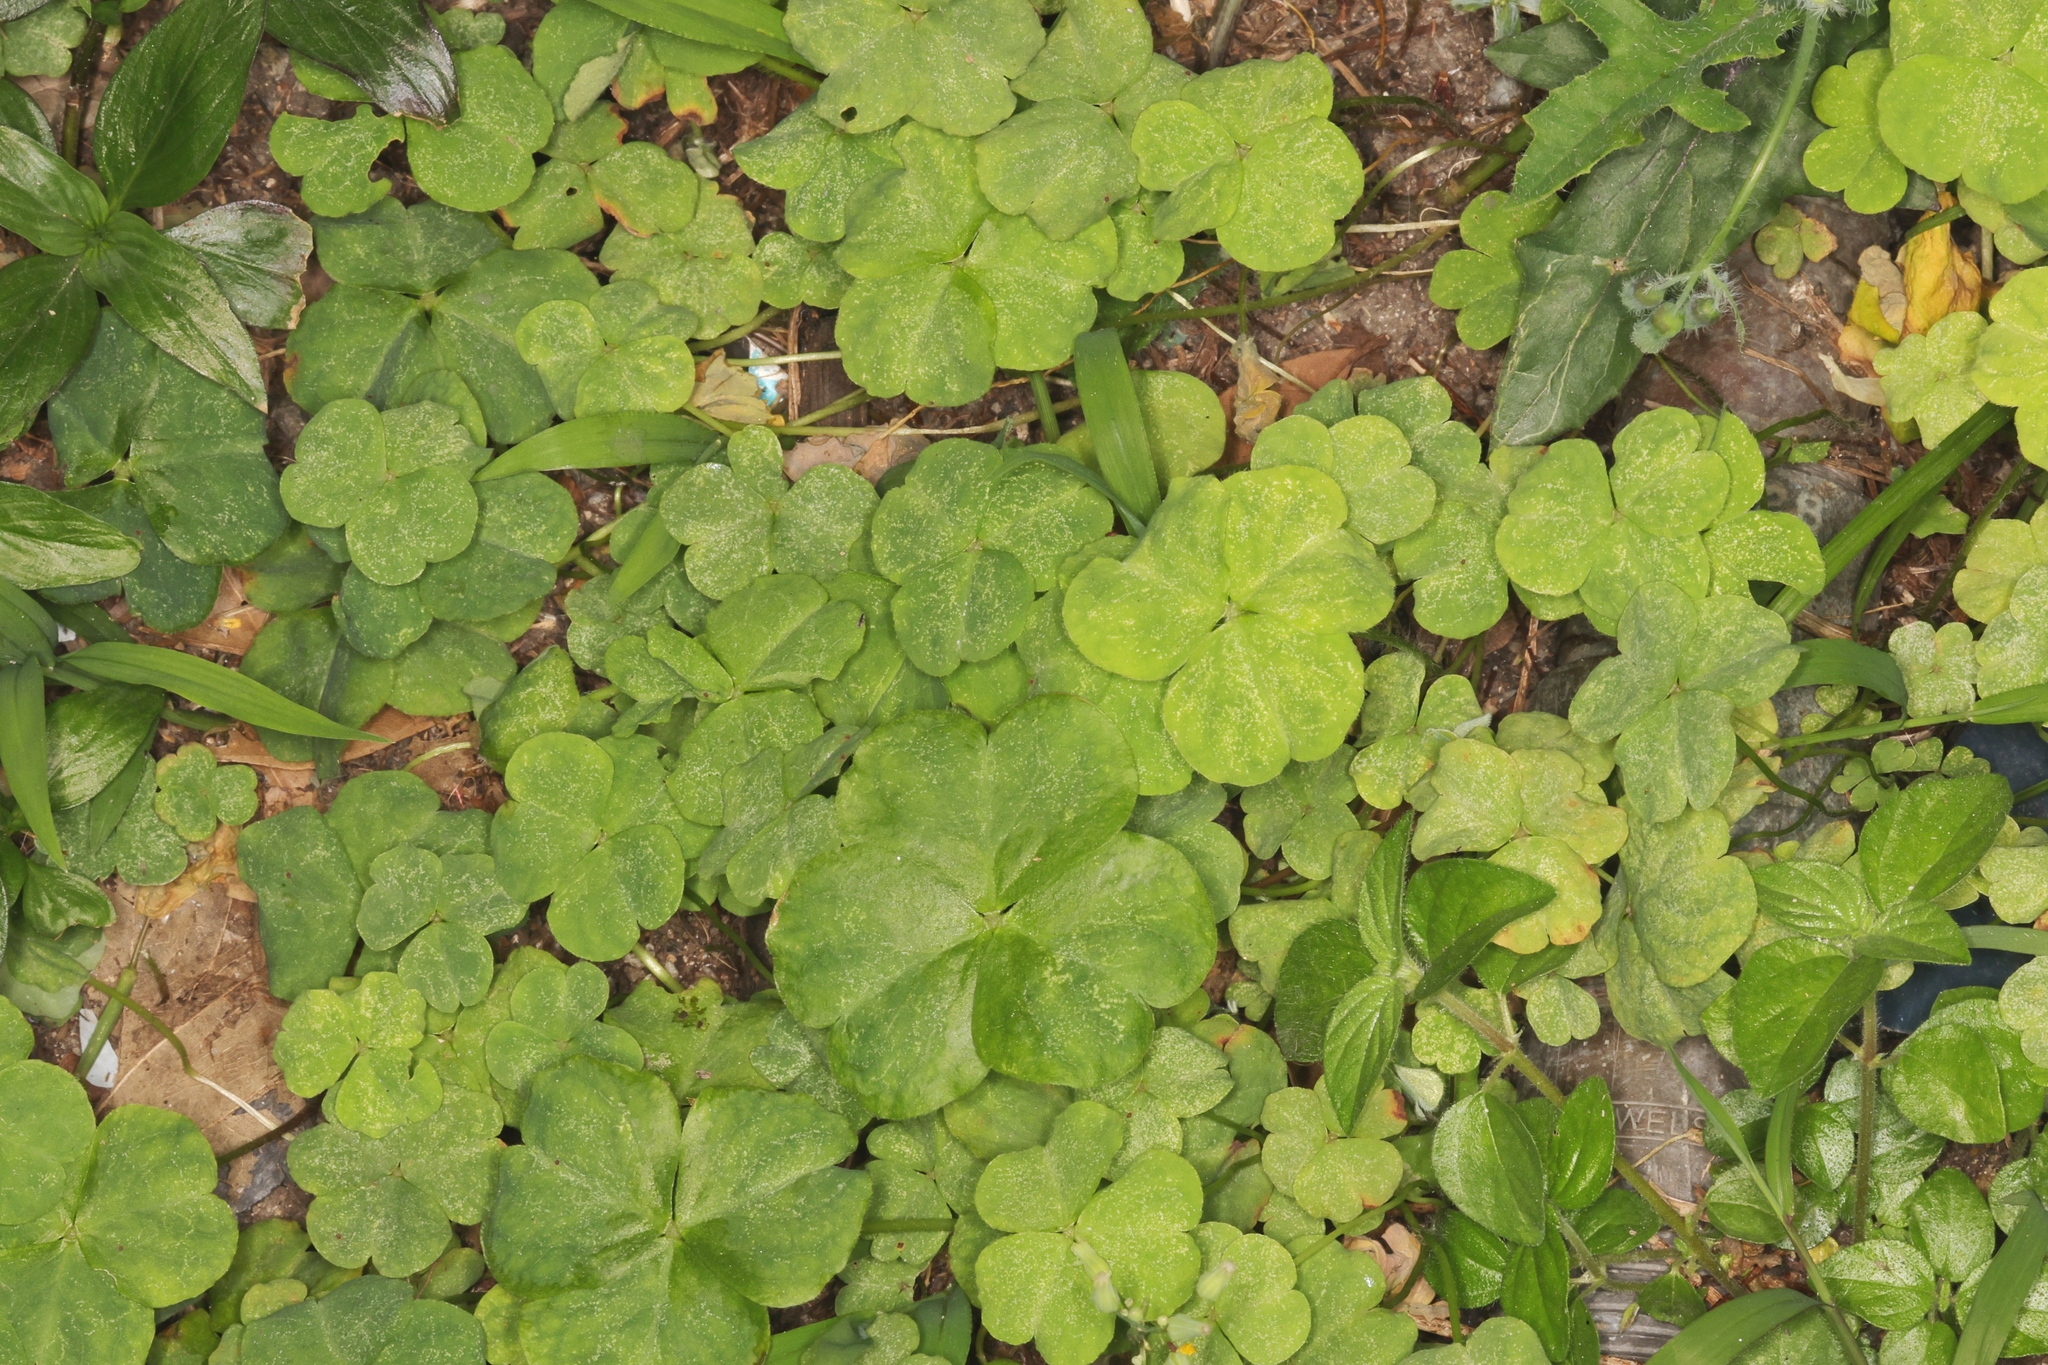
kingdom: Plantae
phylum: Tracheophyta
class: Magnoliopsida
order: Oxalidales
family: Oxalidaceae
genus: Oxalis
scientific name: Oxalis corniculata
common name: Procumbent yellow-sorrel
